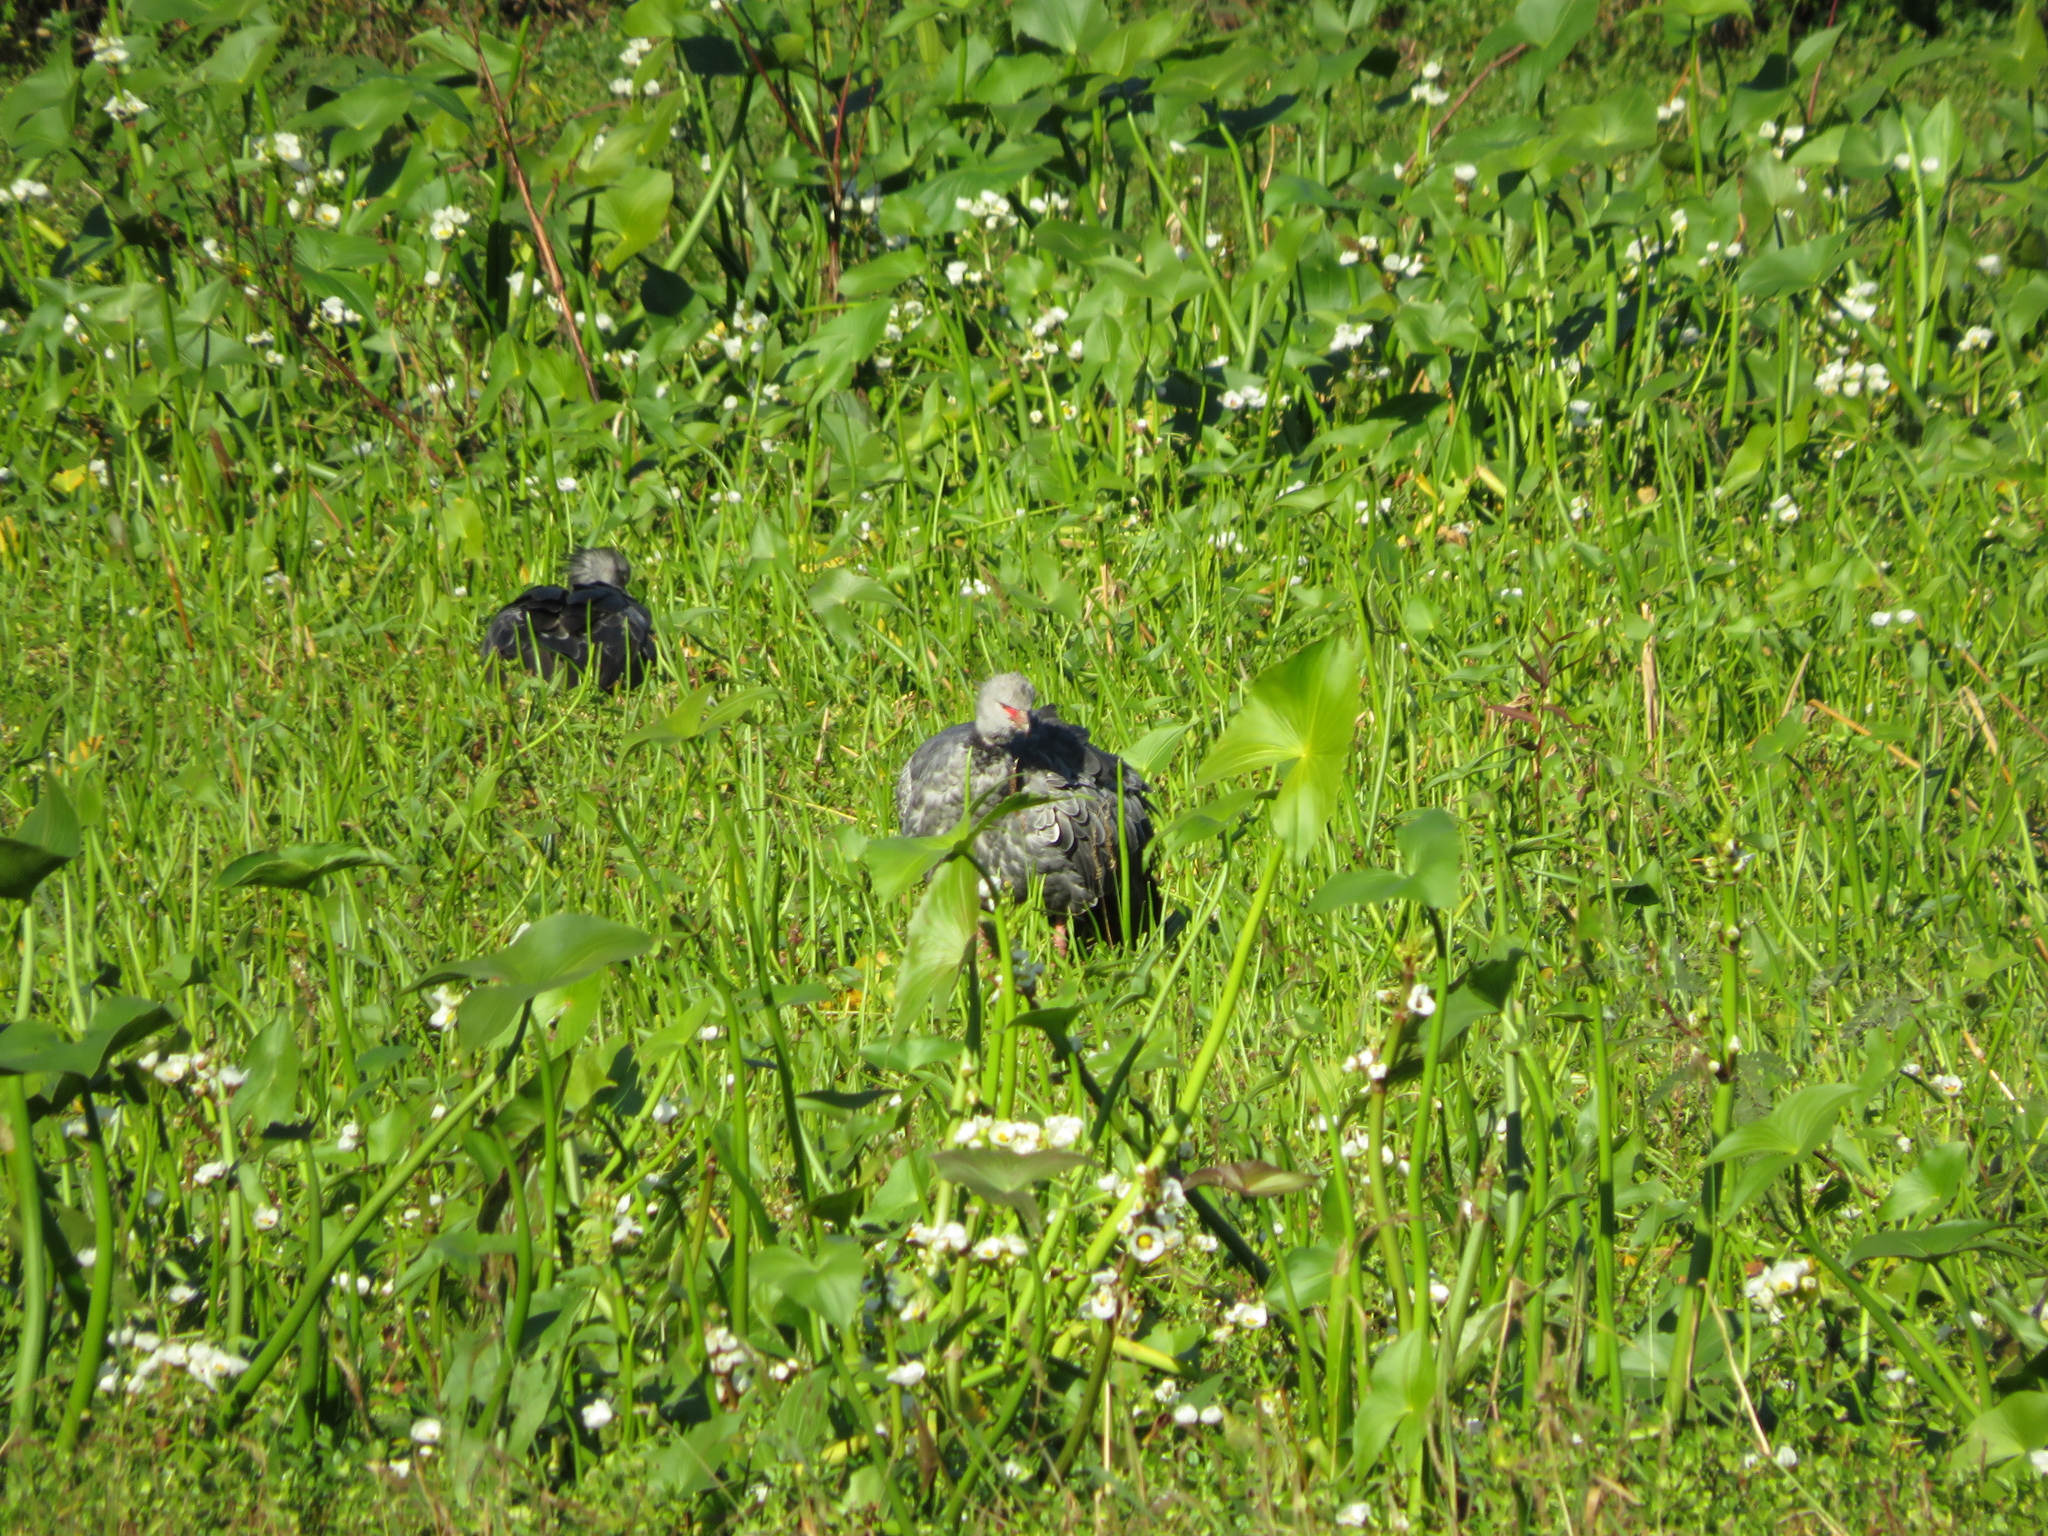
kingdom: Animalia
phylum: Chordata
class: Aves
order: Anseriformes
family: Anhimidae
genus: Chauna
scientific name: Chauna torquata
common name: Southern screamer
